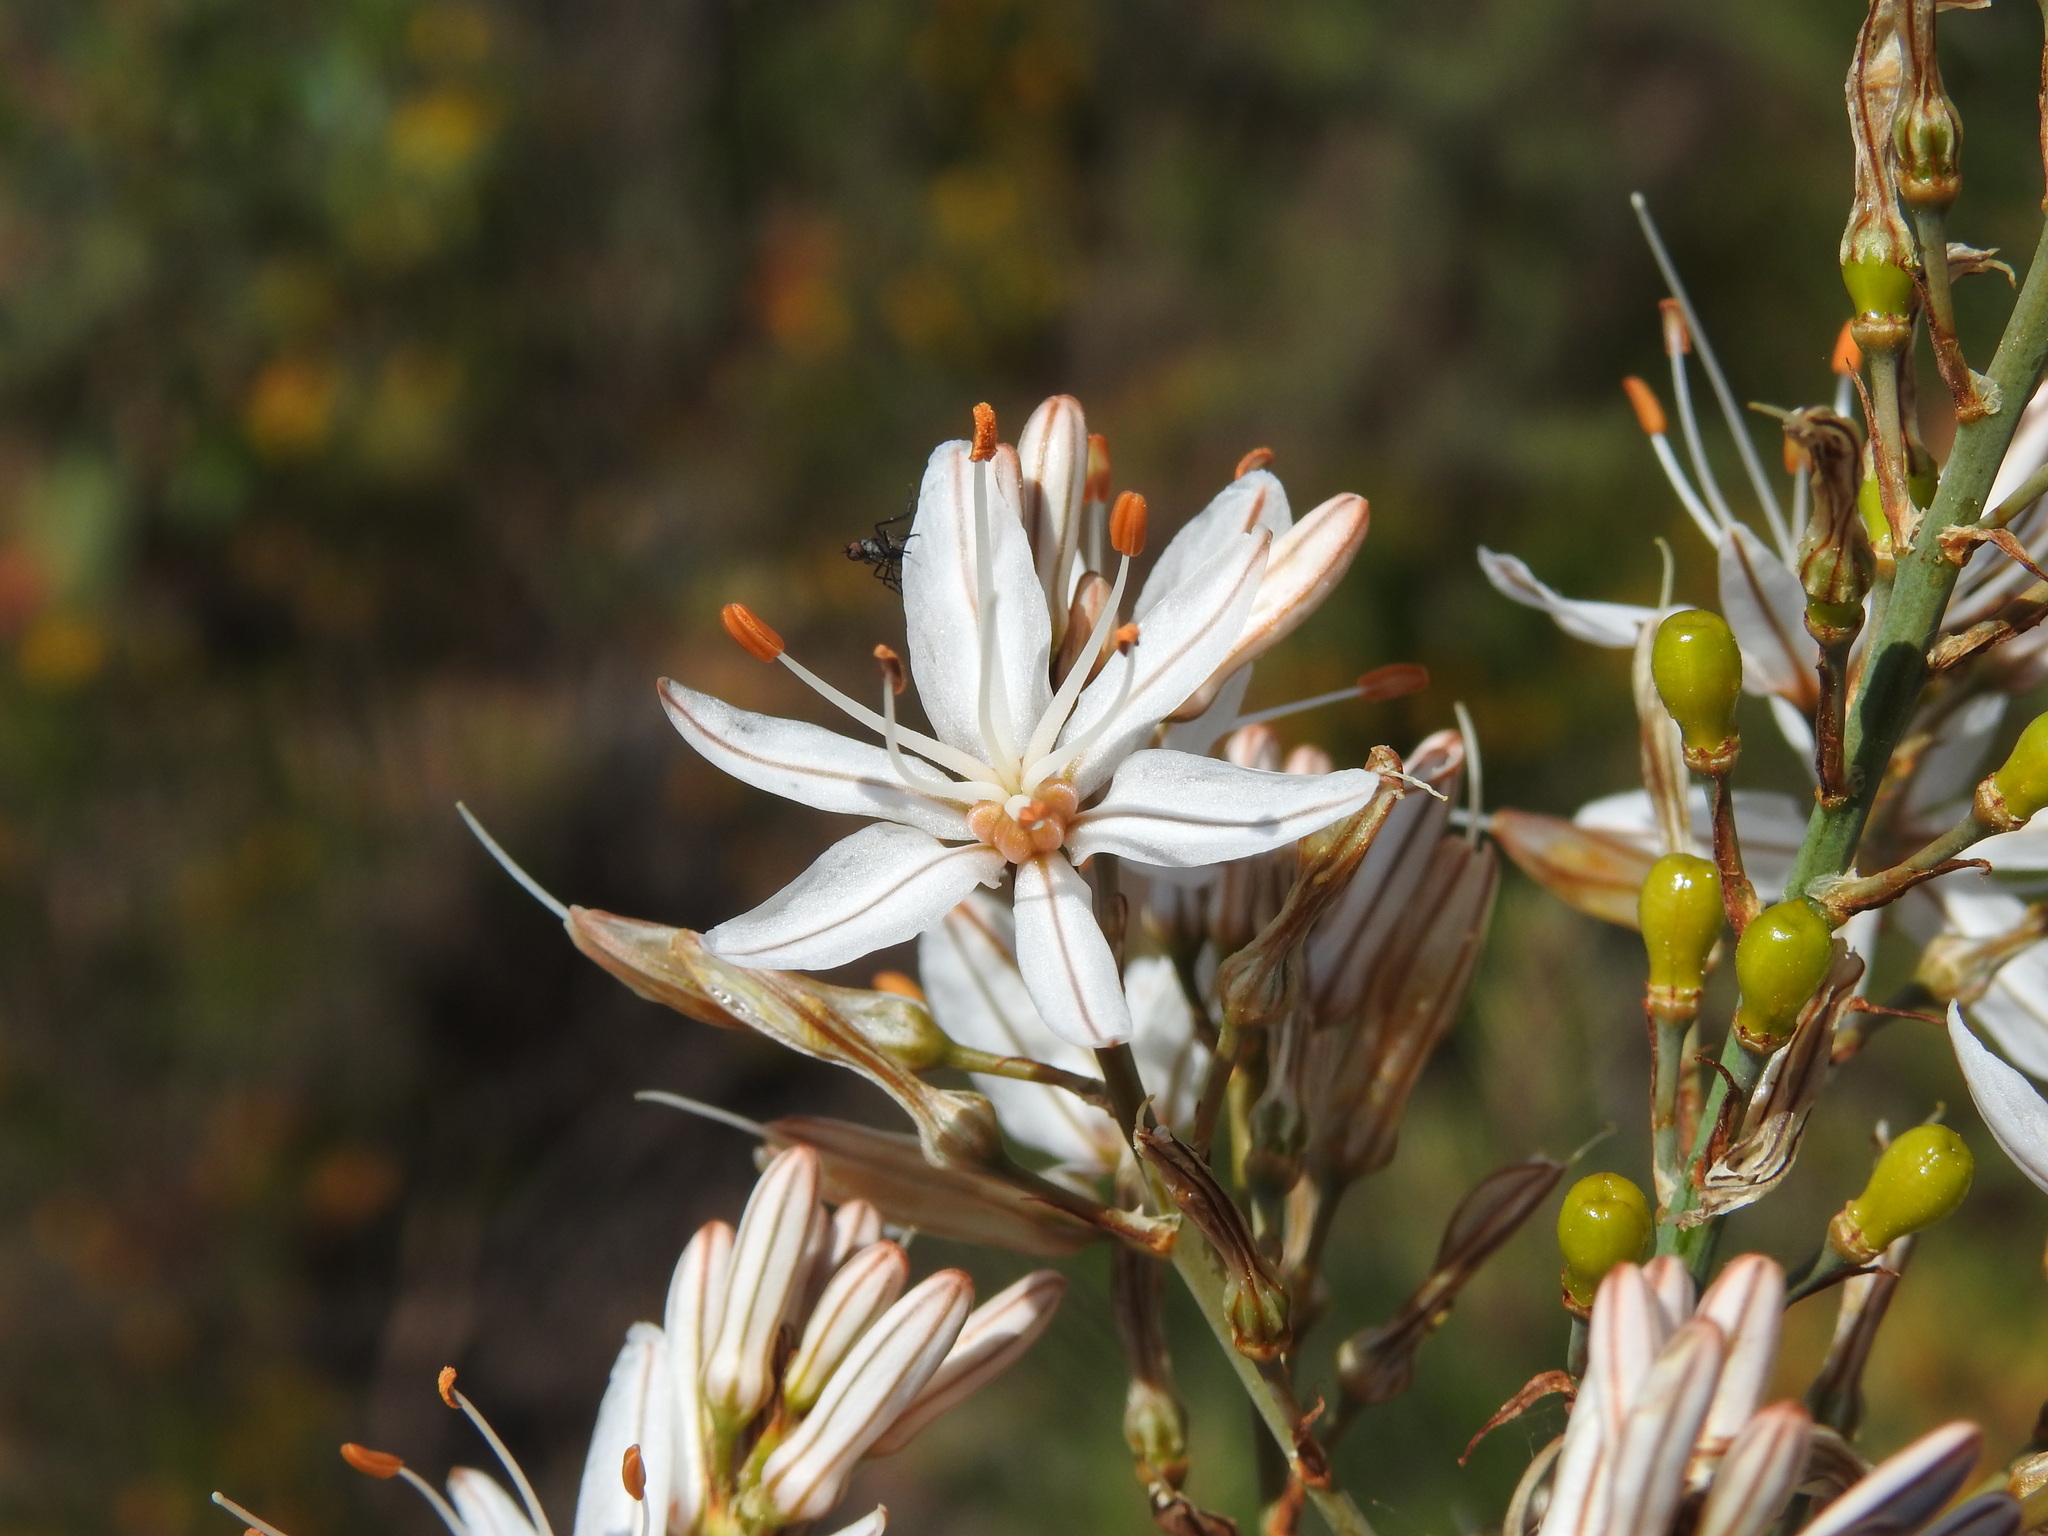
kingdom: Plantae
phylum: Tracheophyta
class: Liliopsida
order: Asparagales
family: Asphodelaceae
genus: Asphodelus
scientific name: Asphodelus serotinus
